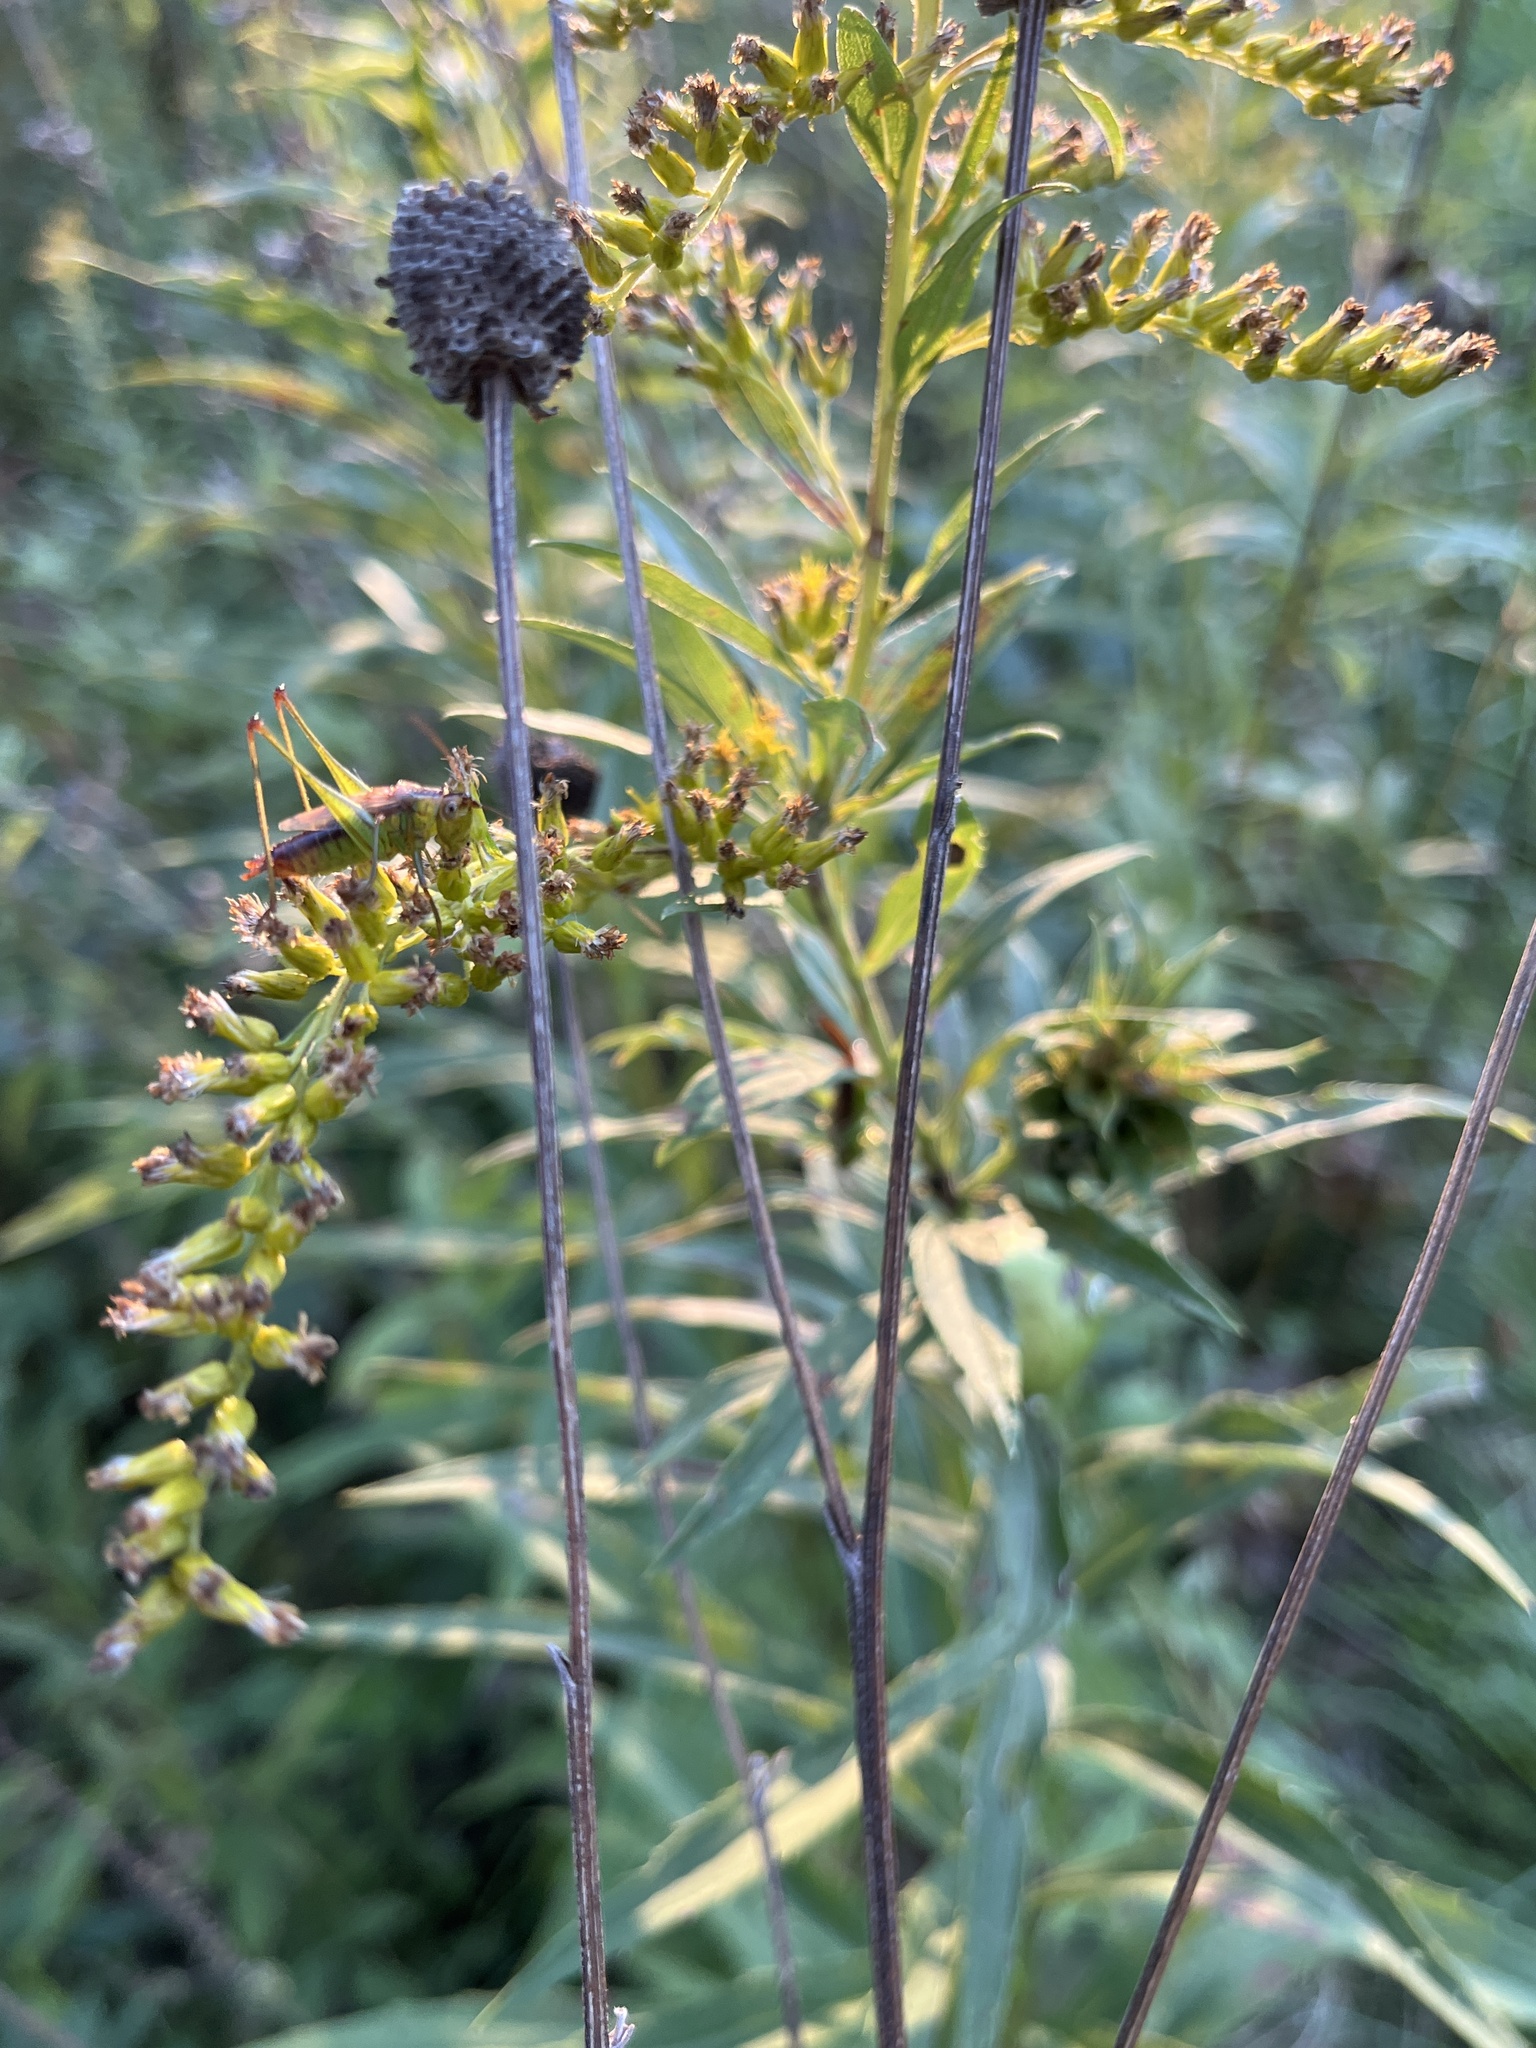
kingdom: Animalia
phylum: Arthropoda
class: Insecta
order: Orthoptera
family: Tettigoniidae
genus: Conocephalus
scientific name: Conocephalus brevipennis
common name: Short-winged meadow katydid
